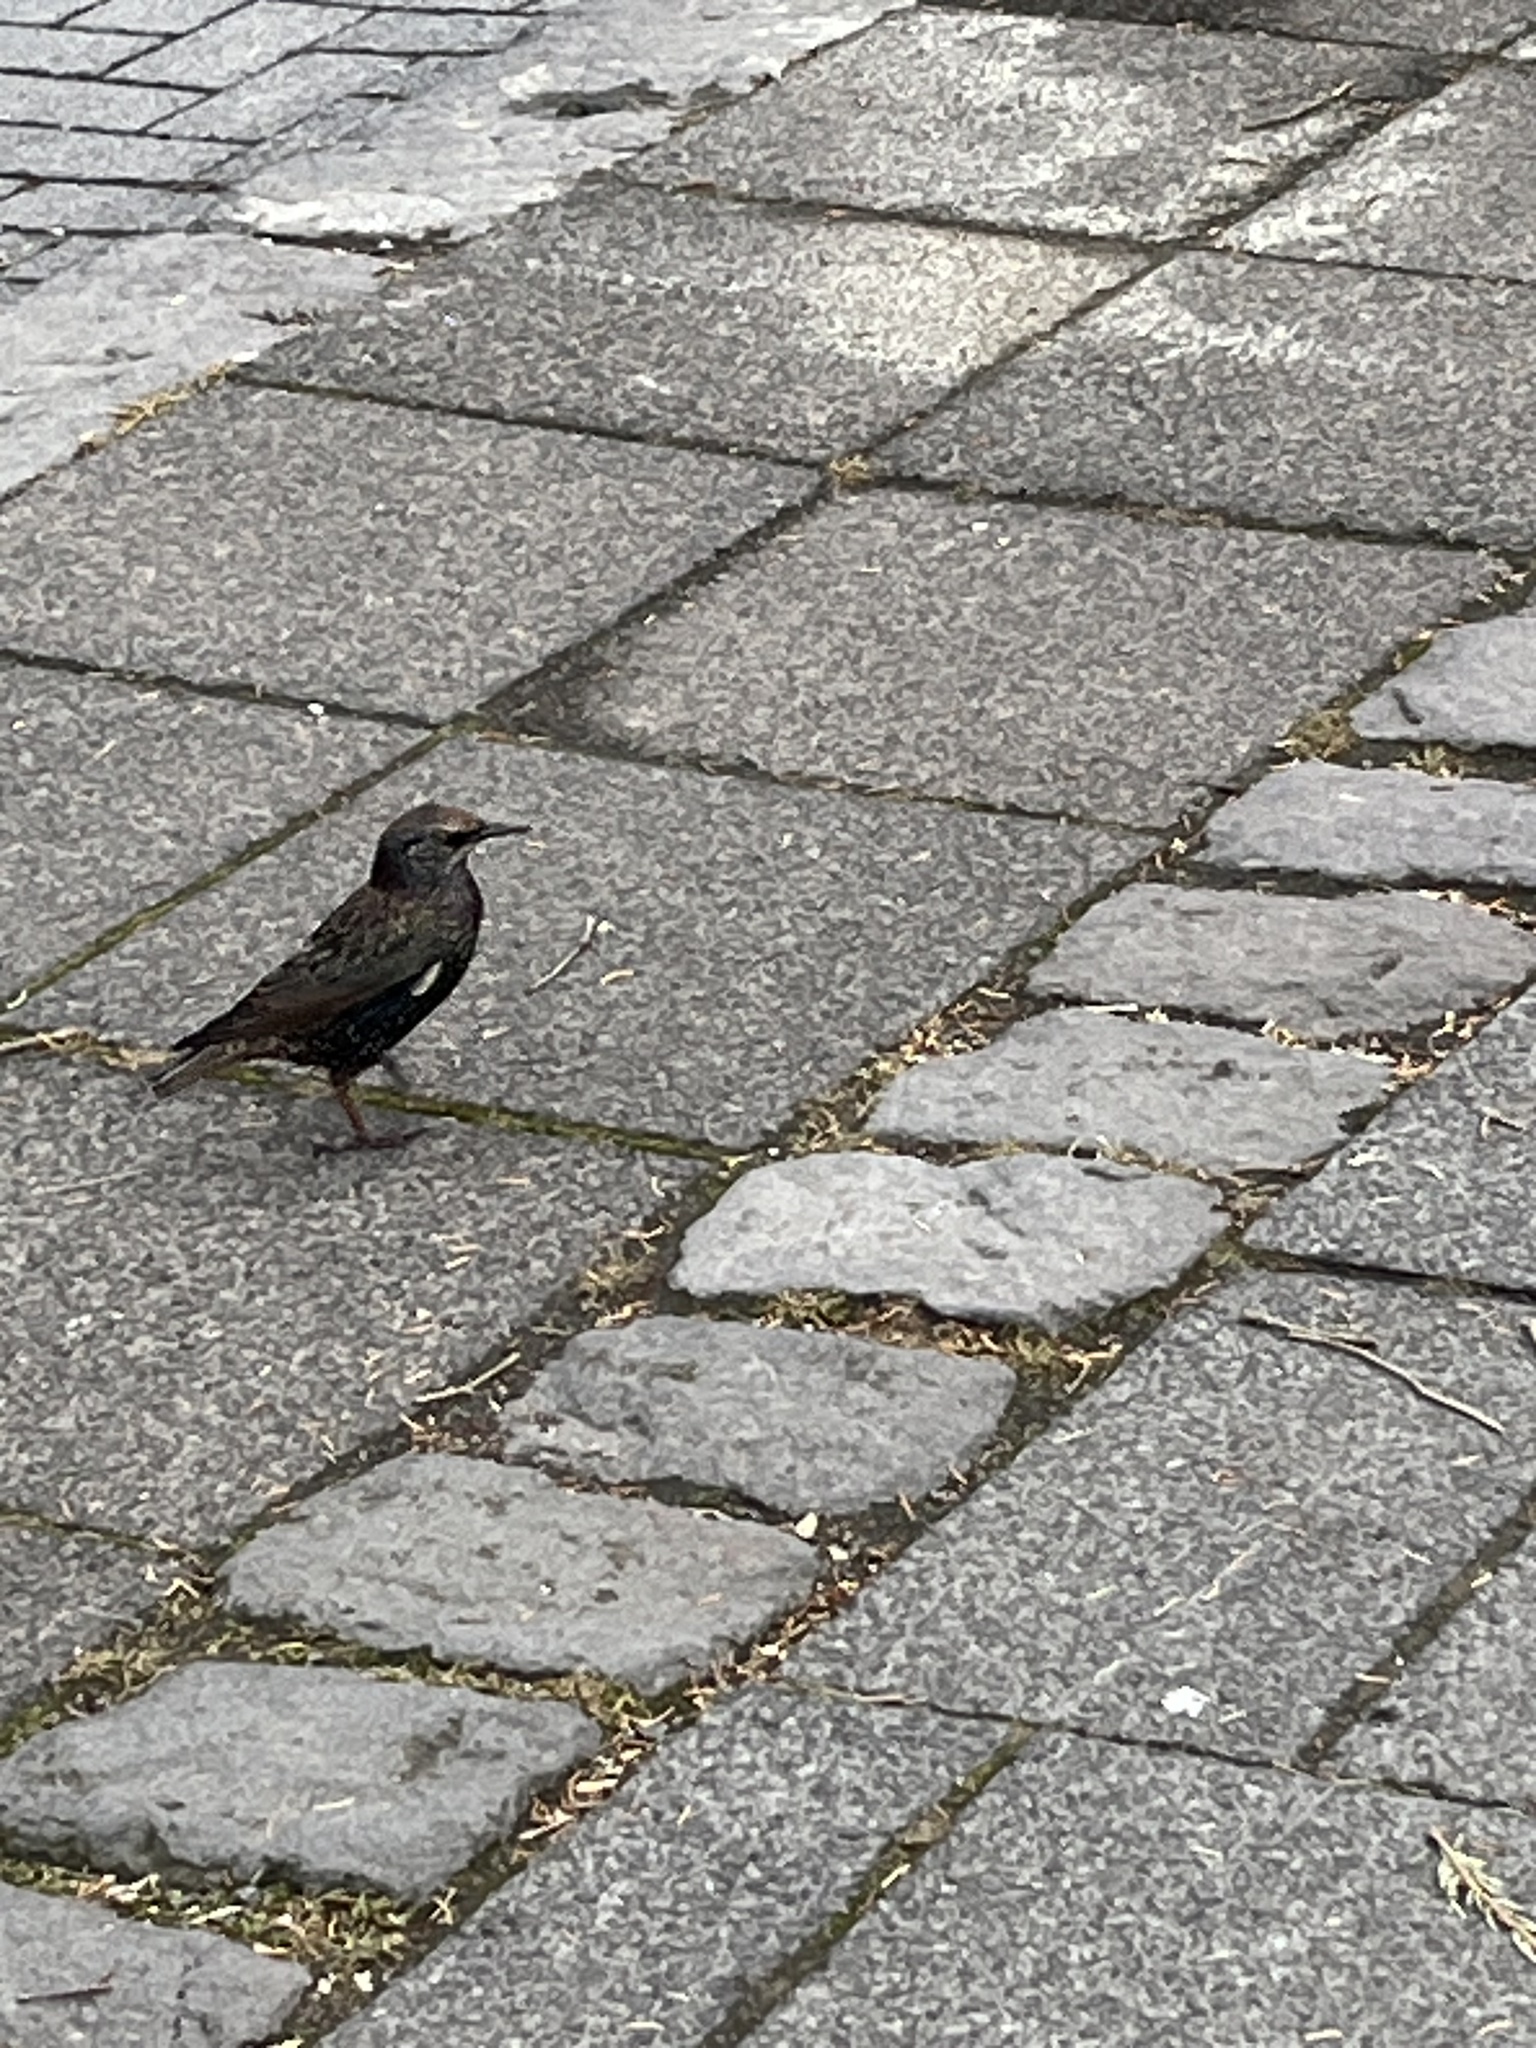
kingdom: Animalia
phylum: Chordata
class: Aves
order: Passeriformes
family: Sturnidae
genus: Sturnus
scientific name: Sturnus vulgaris
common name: Common starling
